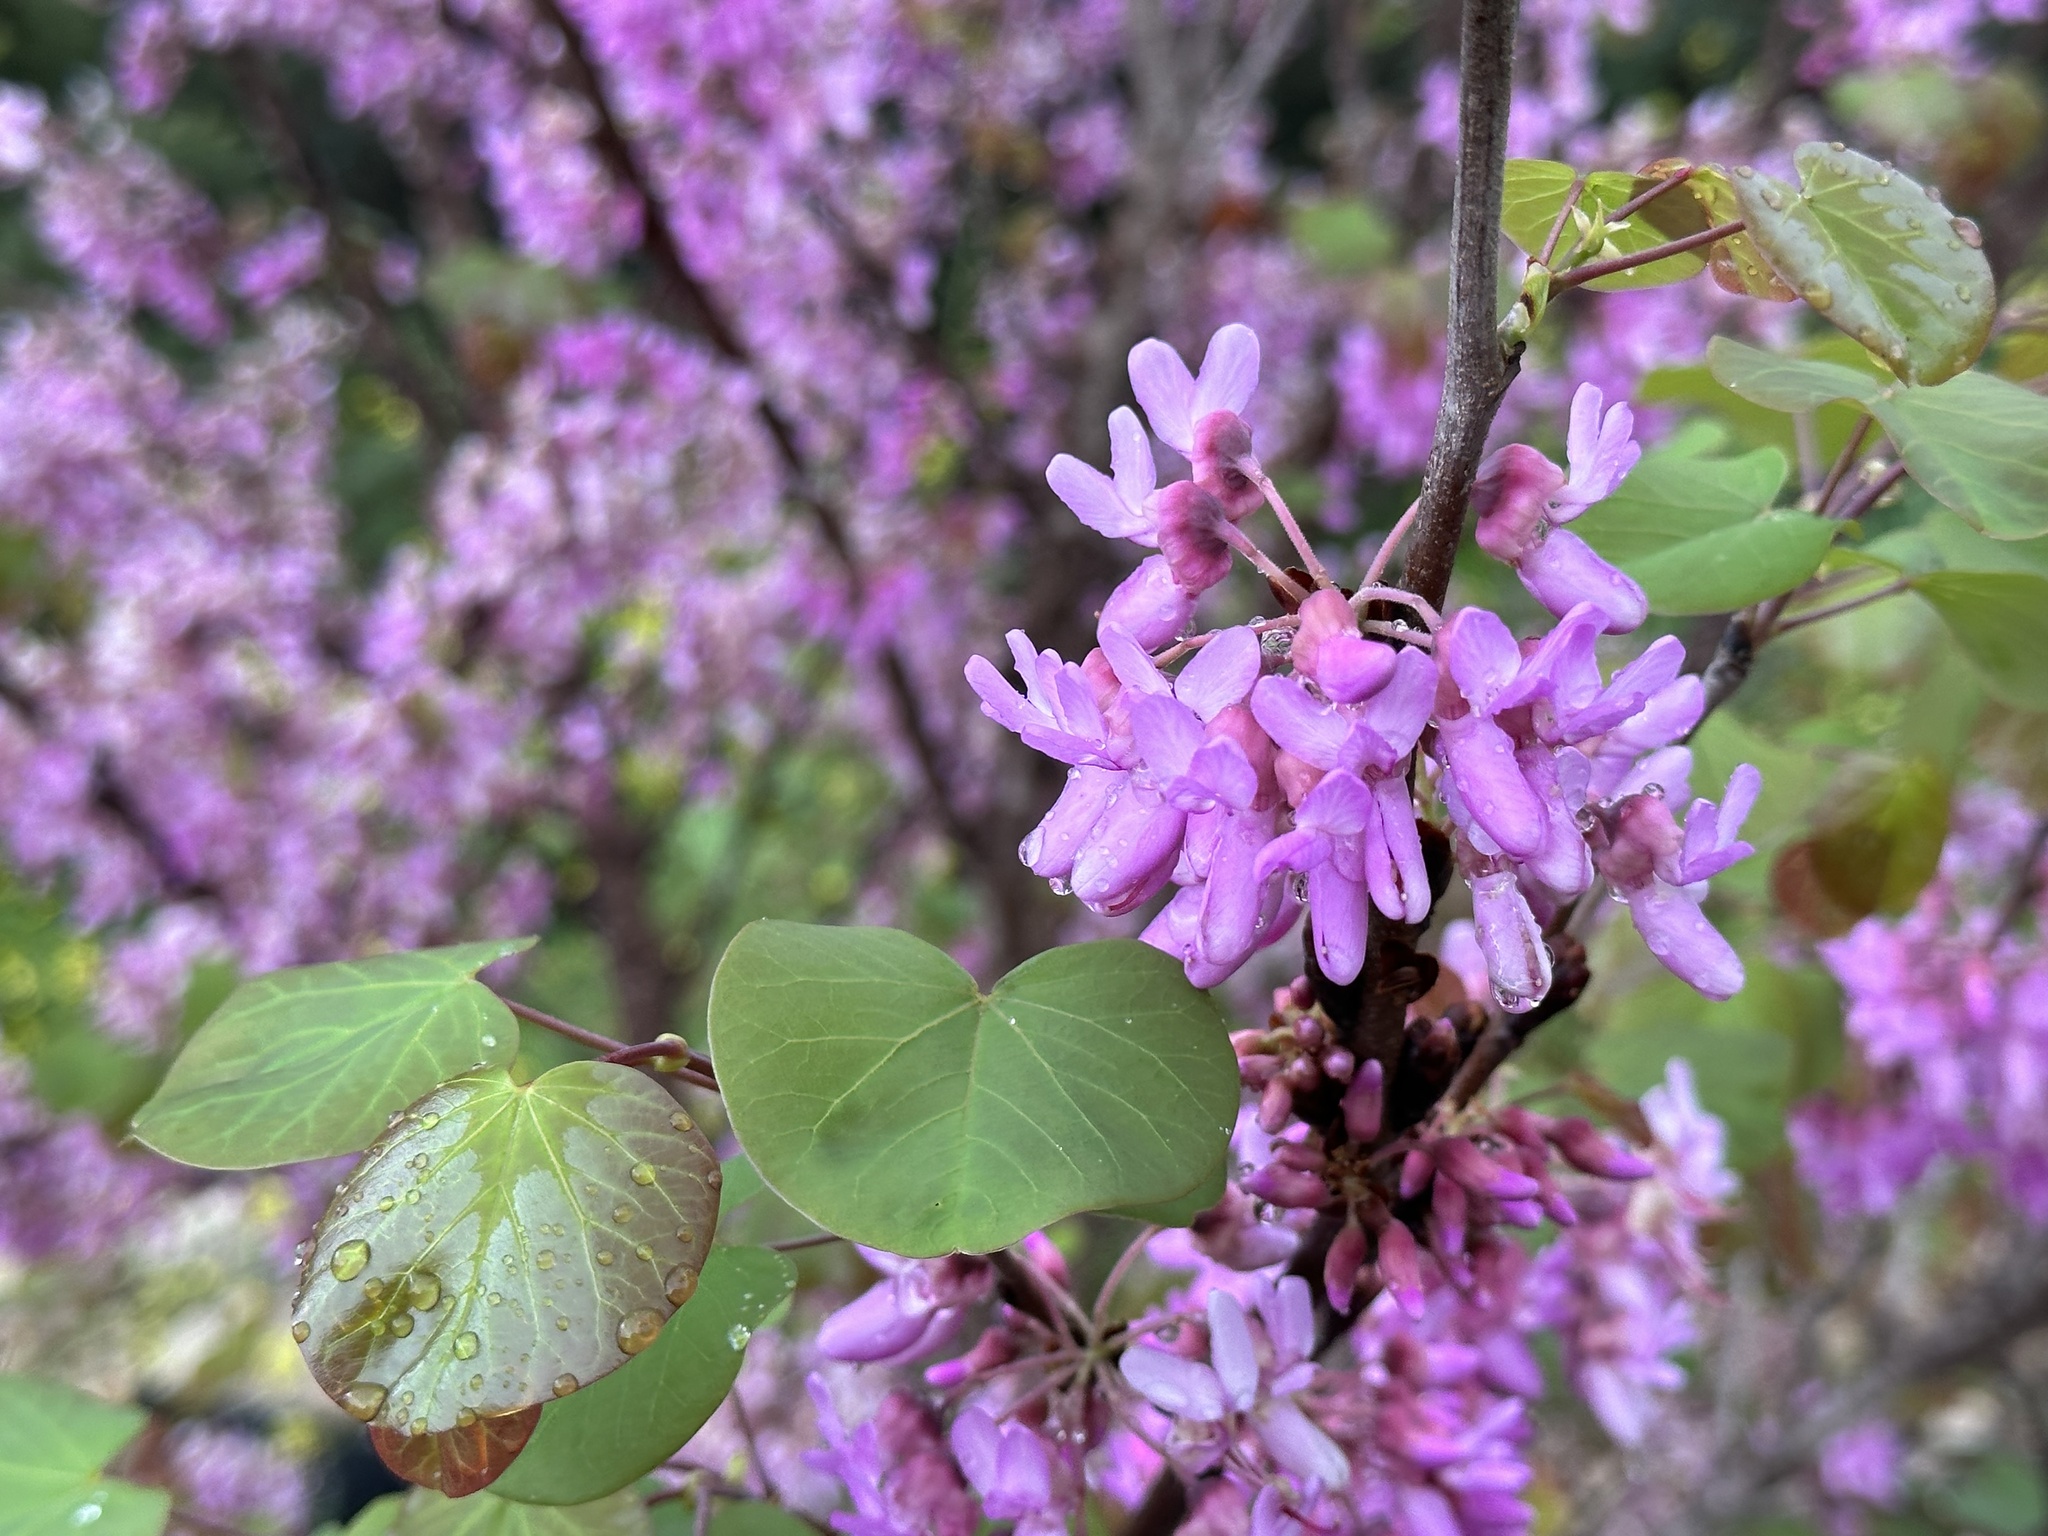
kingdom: Plantae
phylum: Tracheophyta
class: Magnoliopsida
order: Fabales
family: Fabaceae
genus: Cercis
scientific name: Cercis siliquastrum
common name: Judas tree
